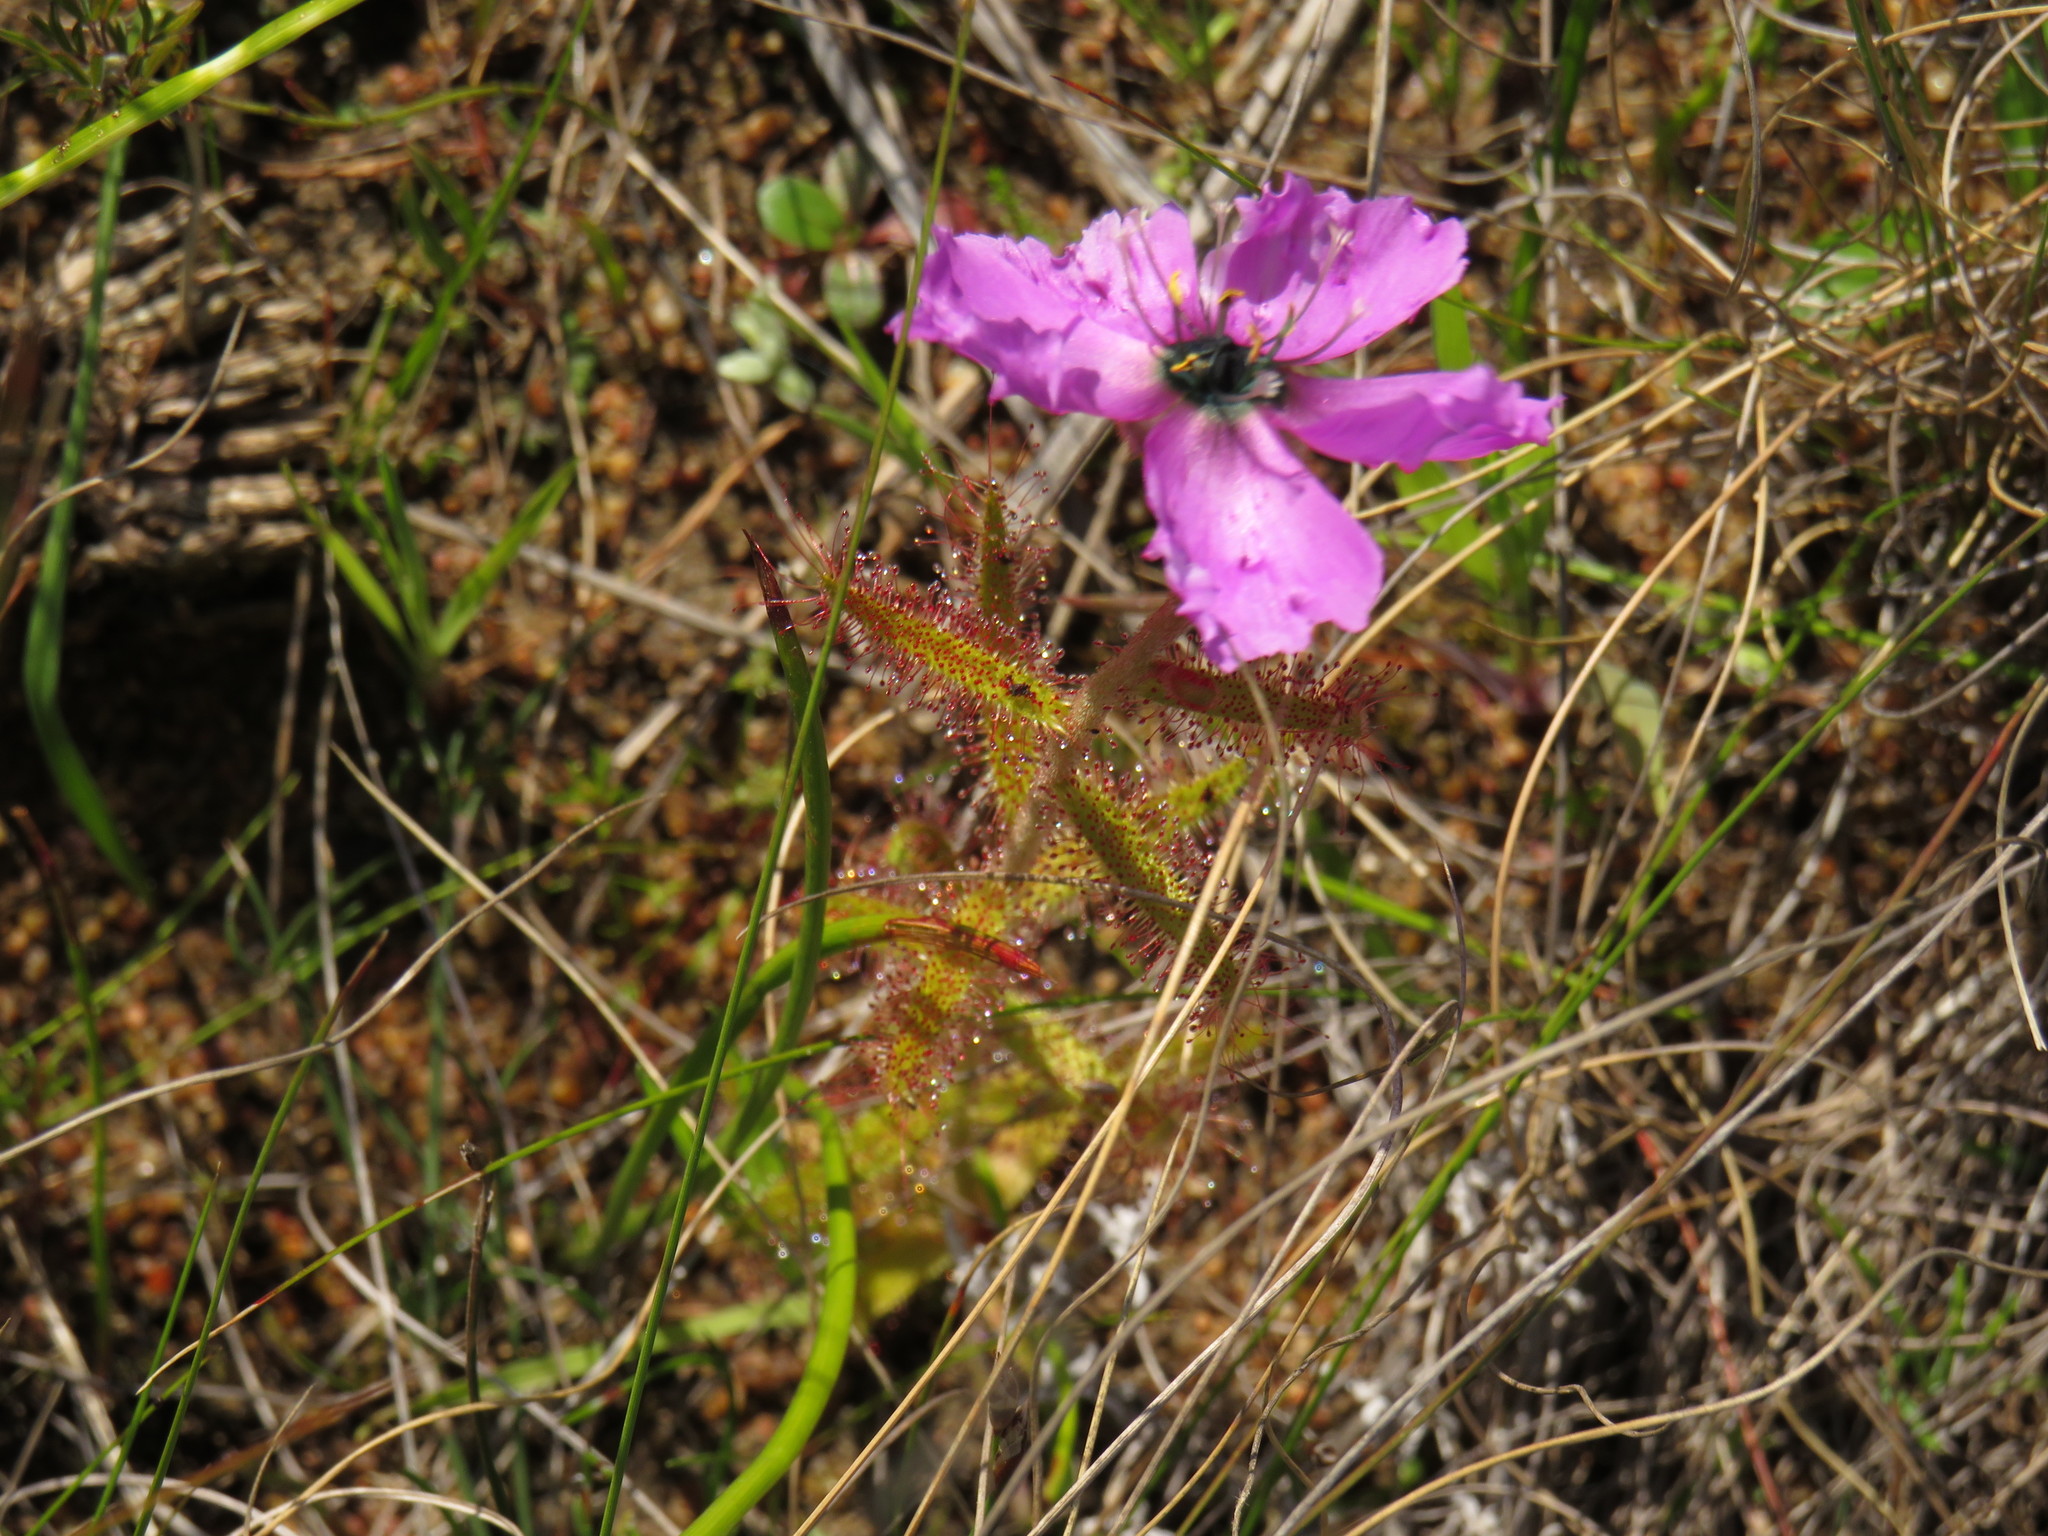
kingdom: Plantae
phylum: Tracheophyta
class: Magnoliopsida
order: Caryophyllales
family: Droseraceae
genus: Drosera
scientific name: Drosera cistiflora
